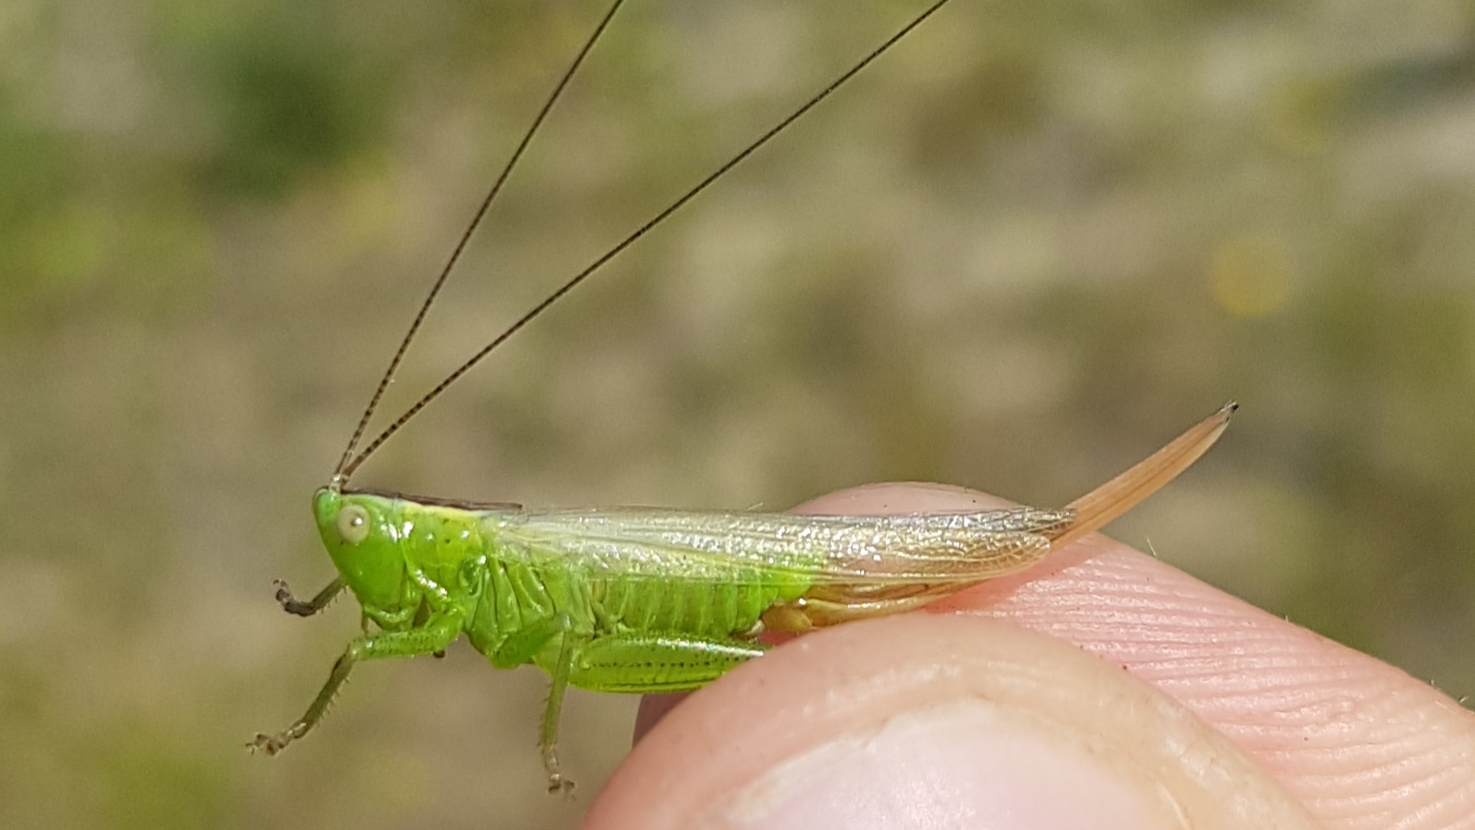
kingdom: Animalia
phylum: Arthropoda
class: Insecta
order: Orthoptera
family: Tettigoniidae
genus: Conocephalus
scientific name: Conocephalus fuscus
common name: Long-winged conehead
